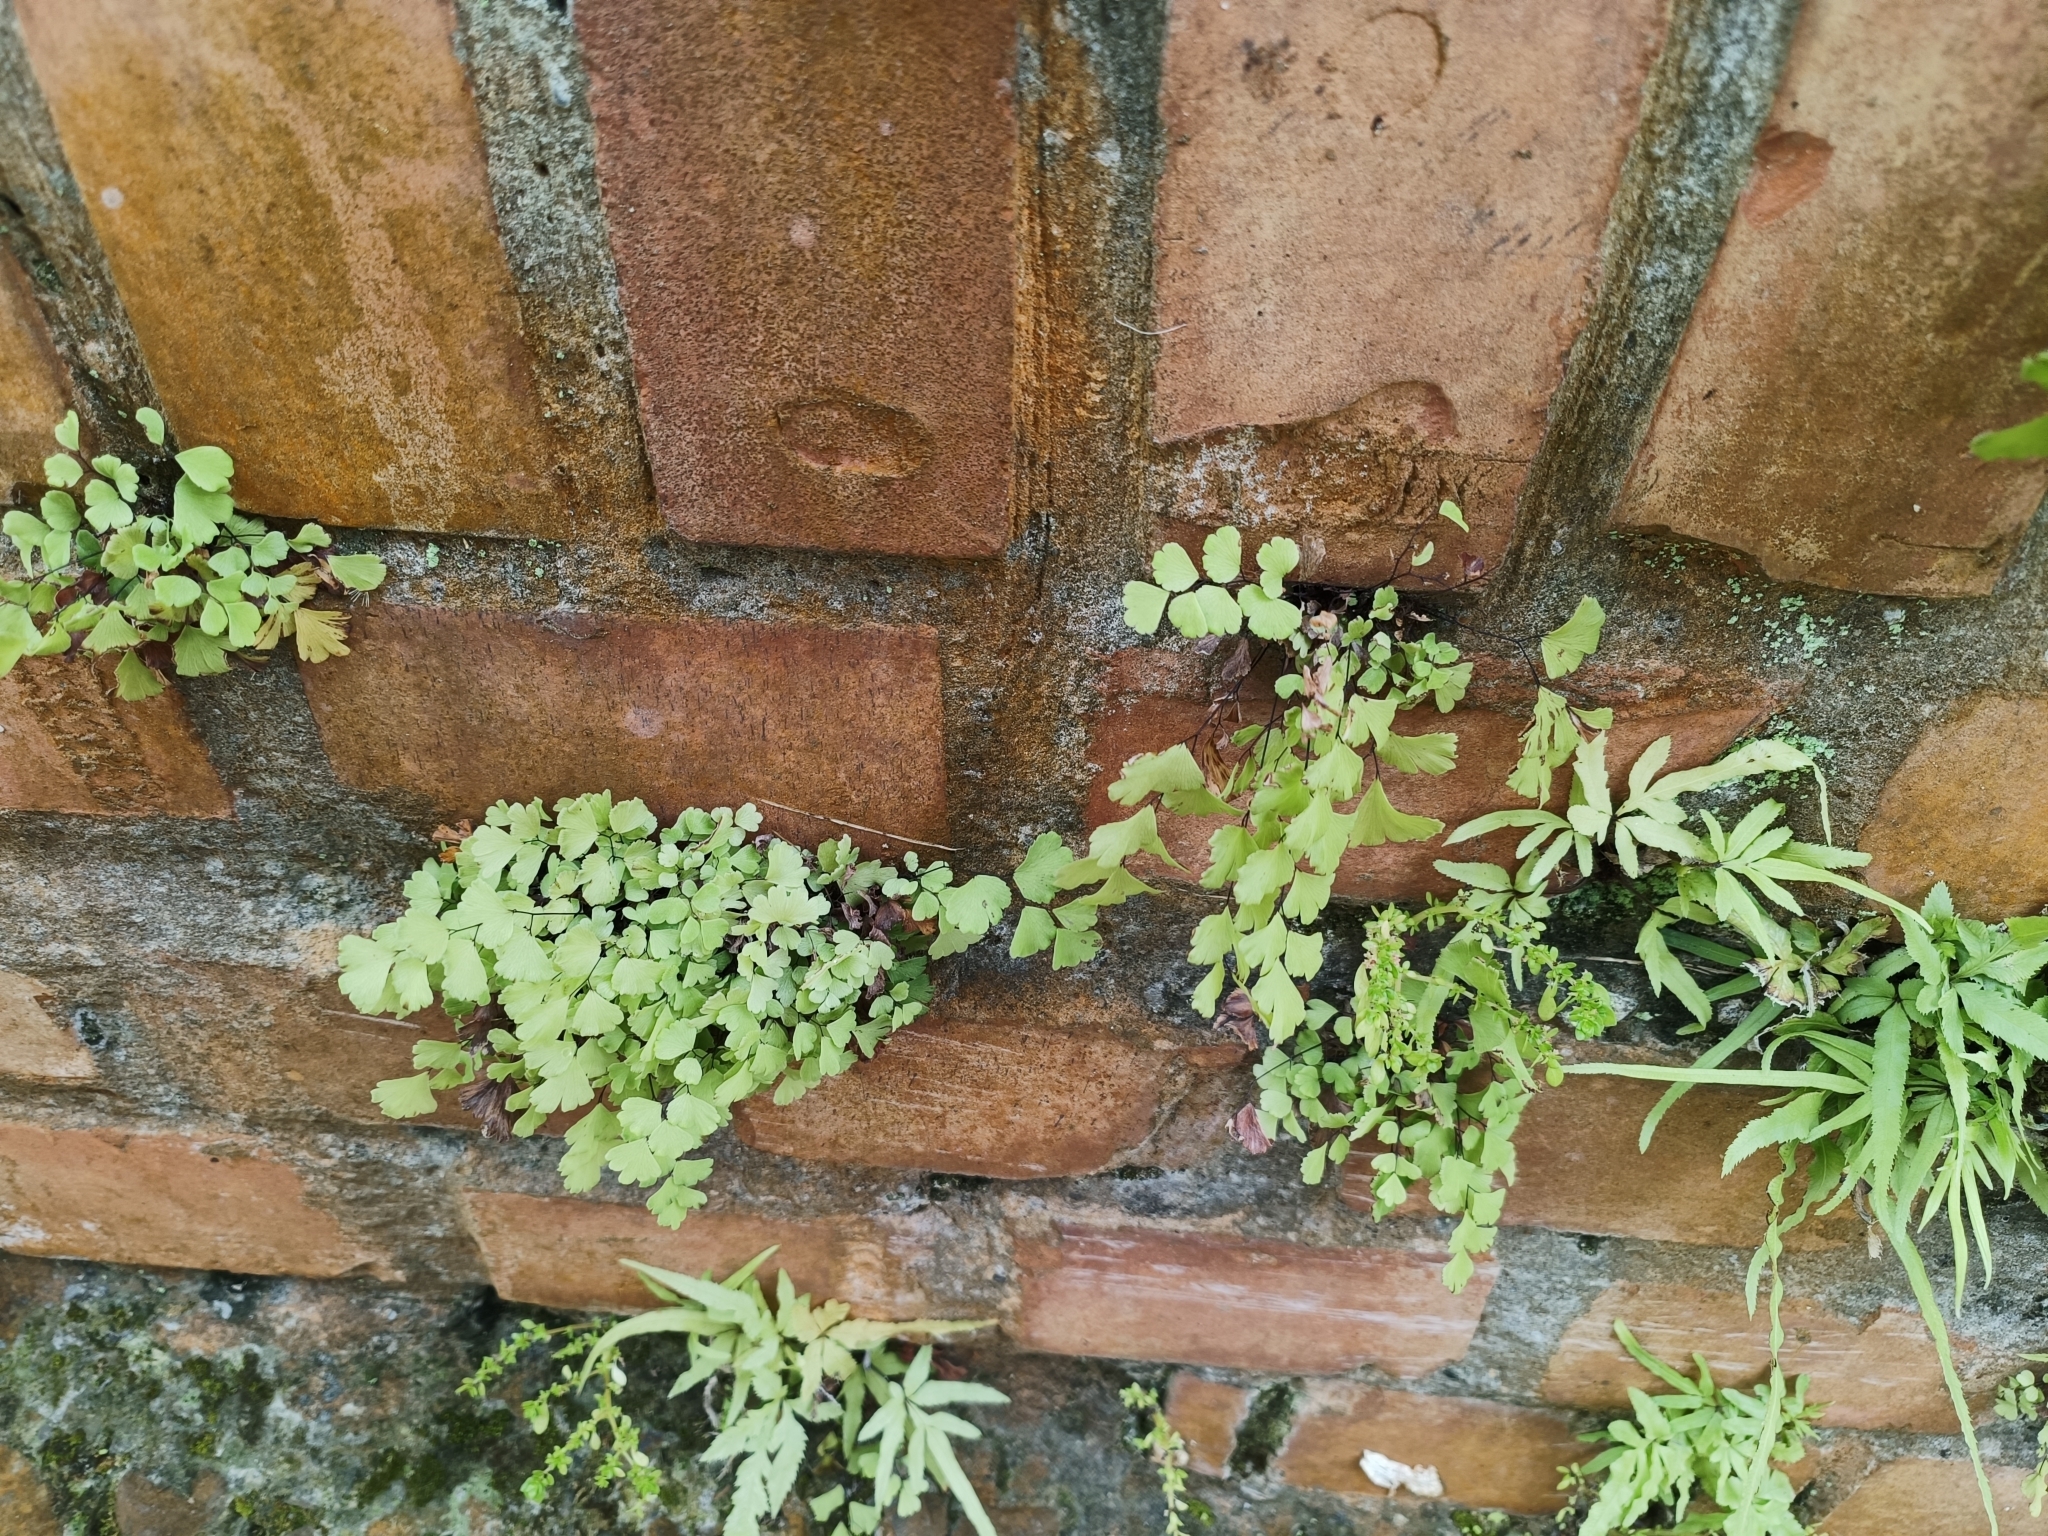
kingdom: Plantae
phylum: Tracheophyta
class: Polypodiopsida
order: Polypodiales
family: Pteridaceae
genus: Adiantum
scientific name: Adiantum capillus-veneris
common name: Maidenhair fern
